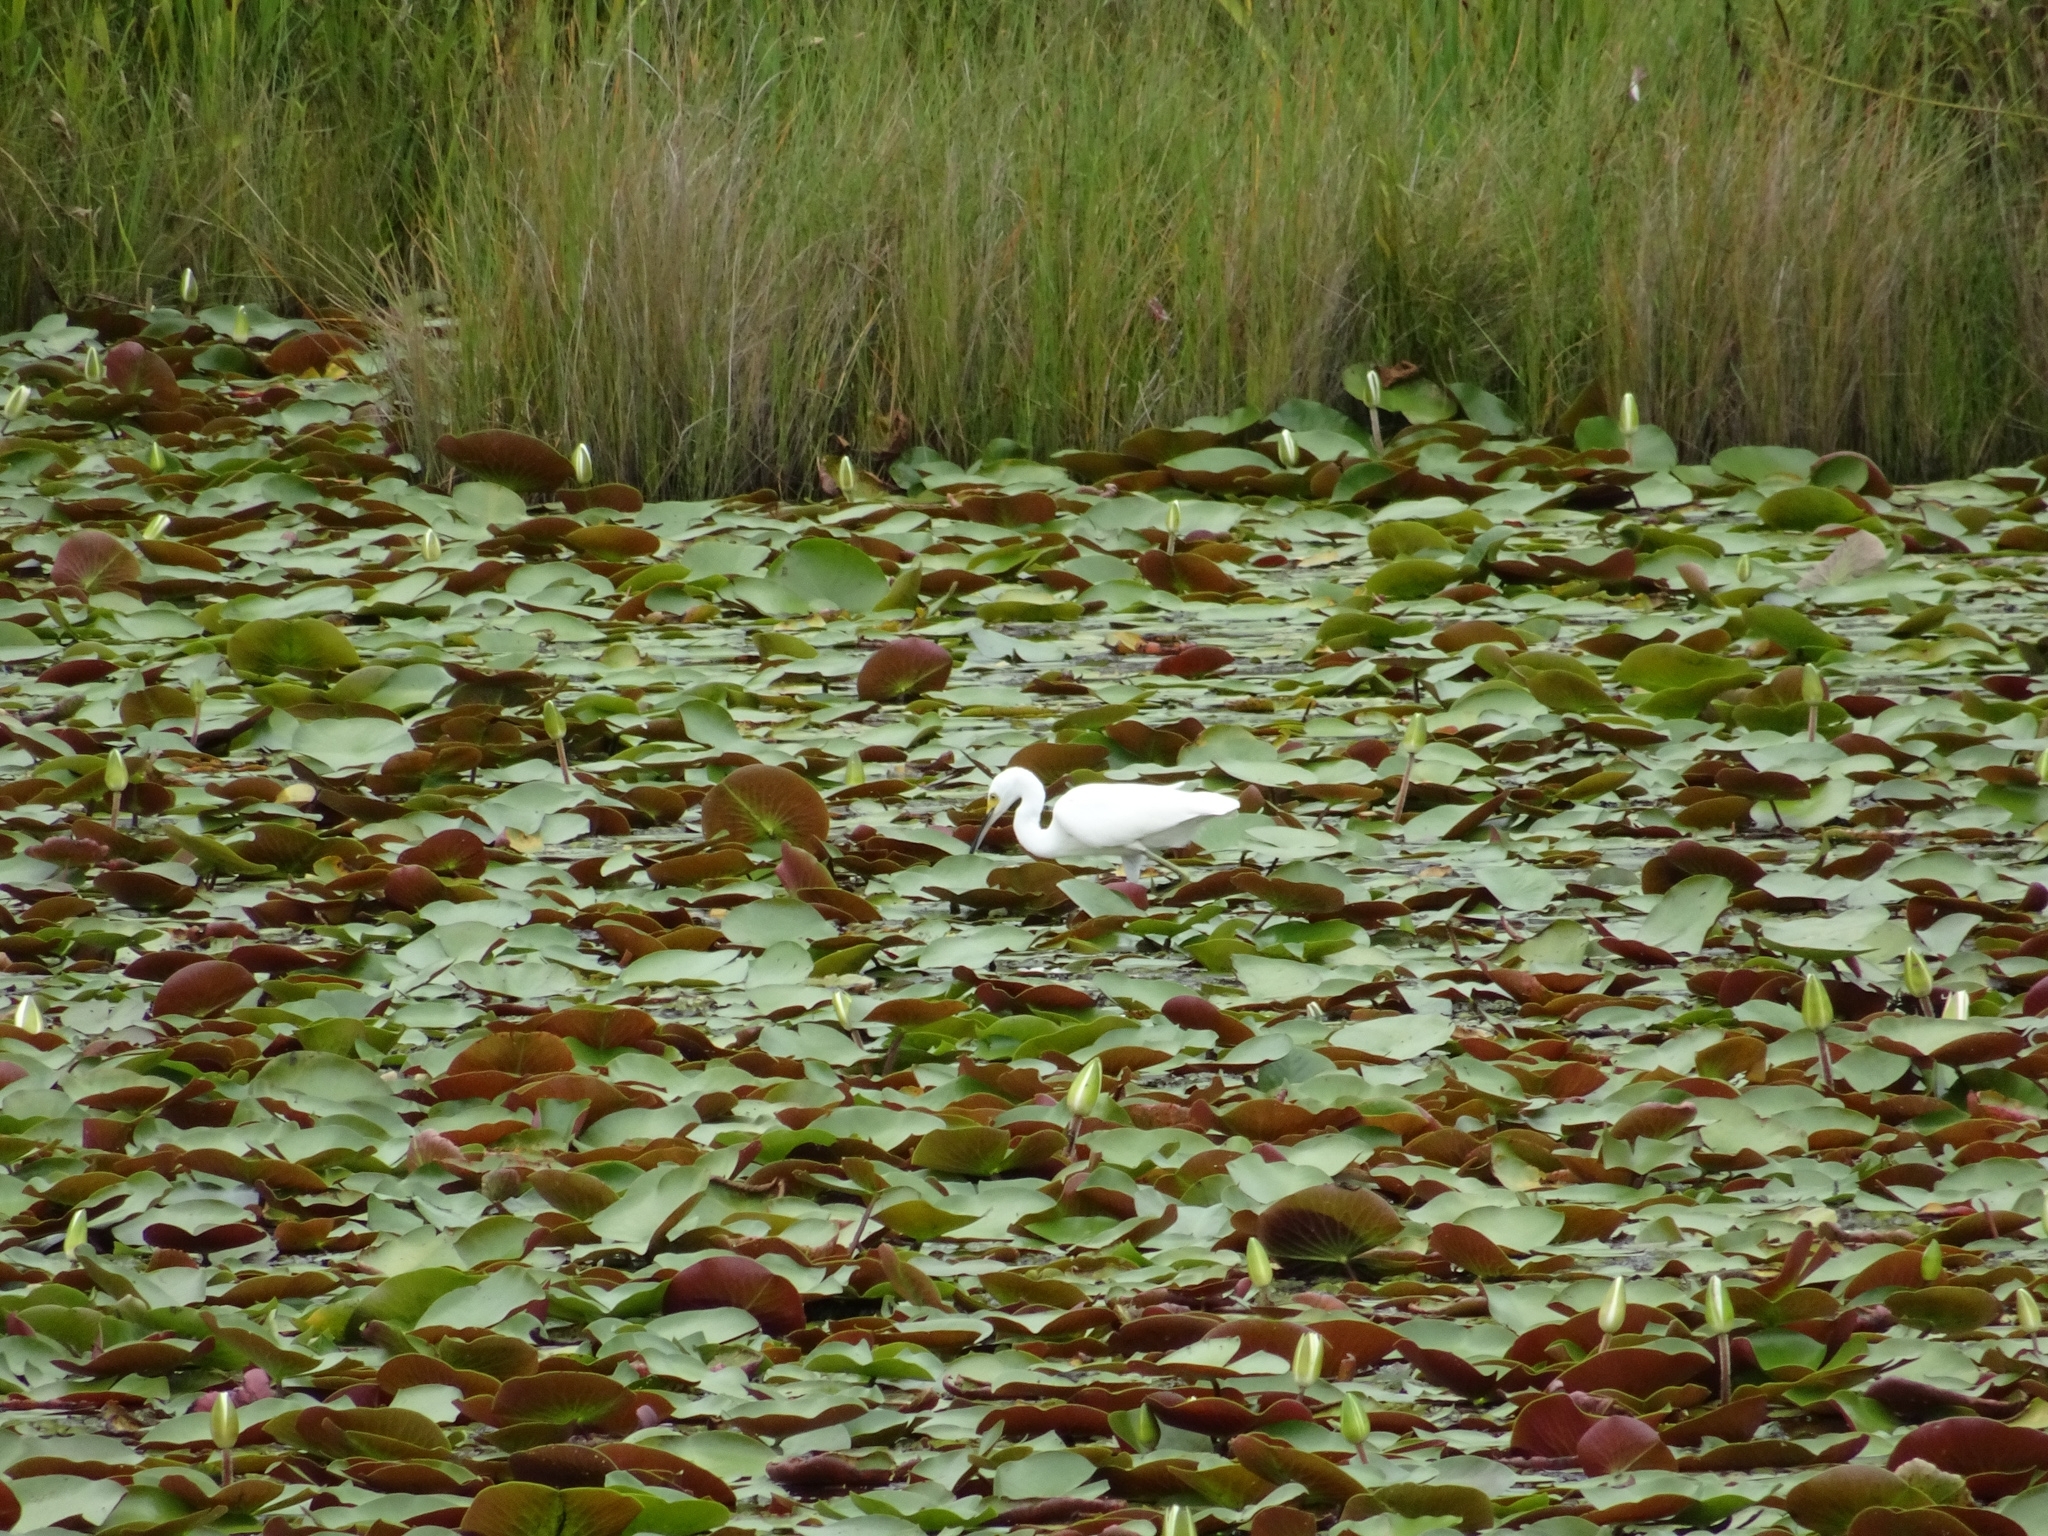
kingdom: Animalia
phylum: Chordata
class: Aves
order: Pelecaniformes
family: Ardeidae
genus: Egretta
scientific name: Egretta thula
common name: Snowy egret
